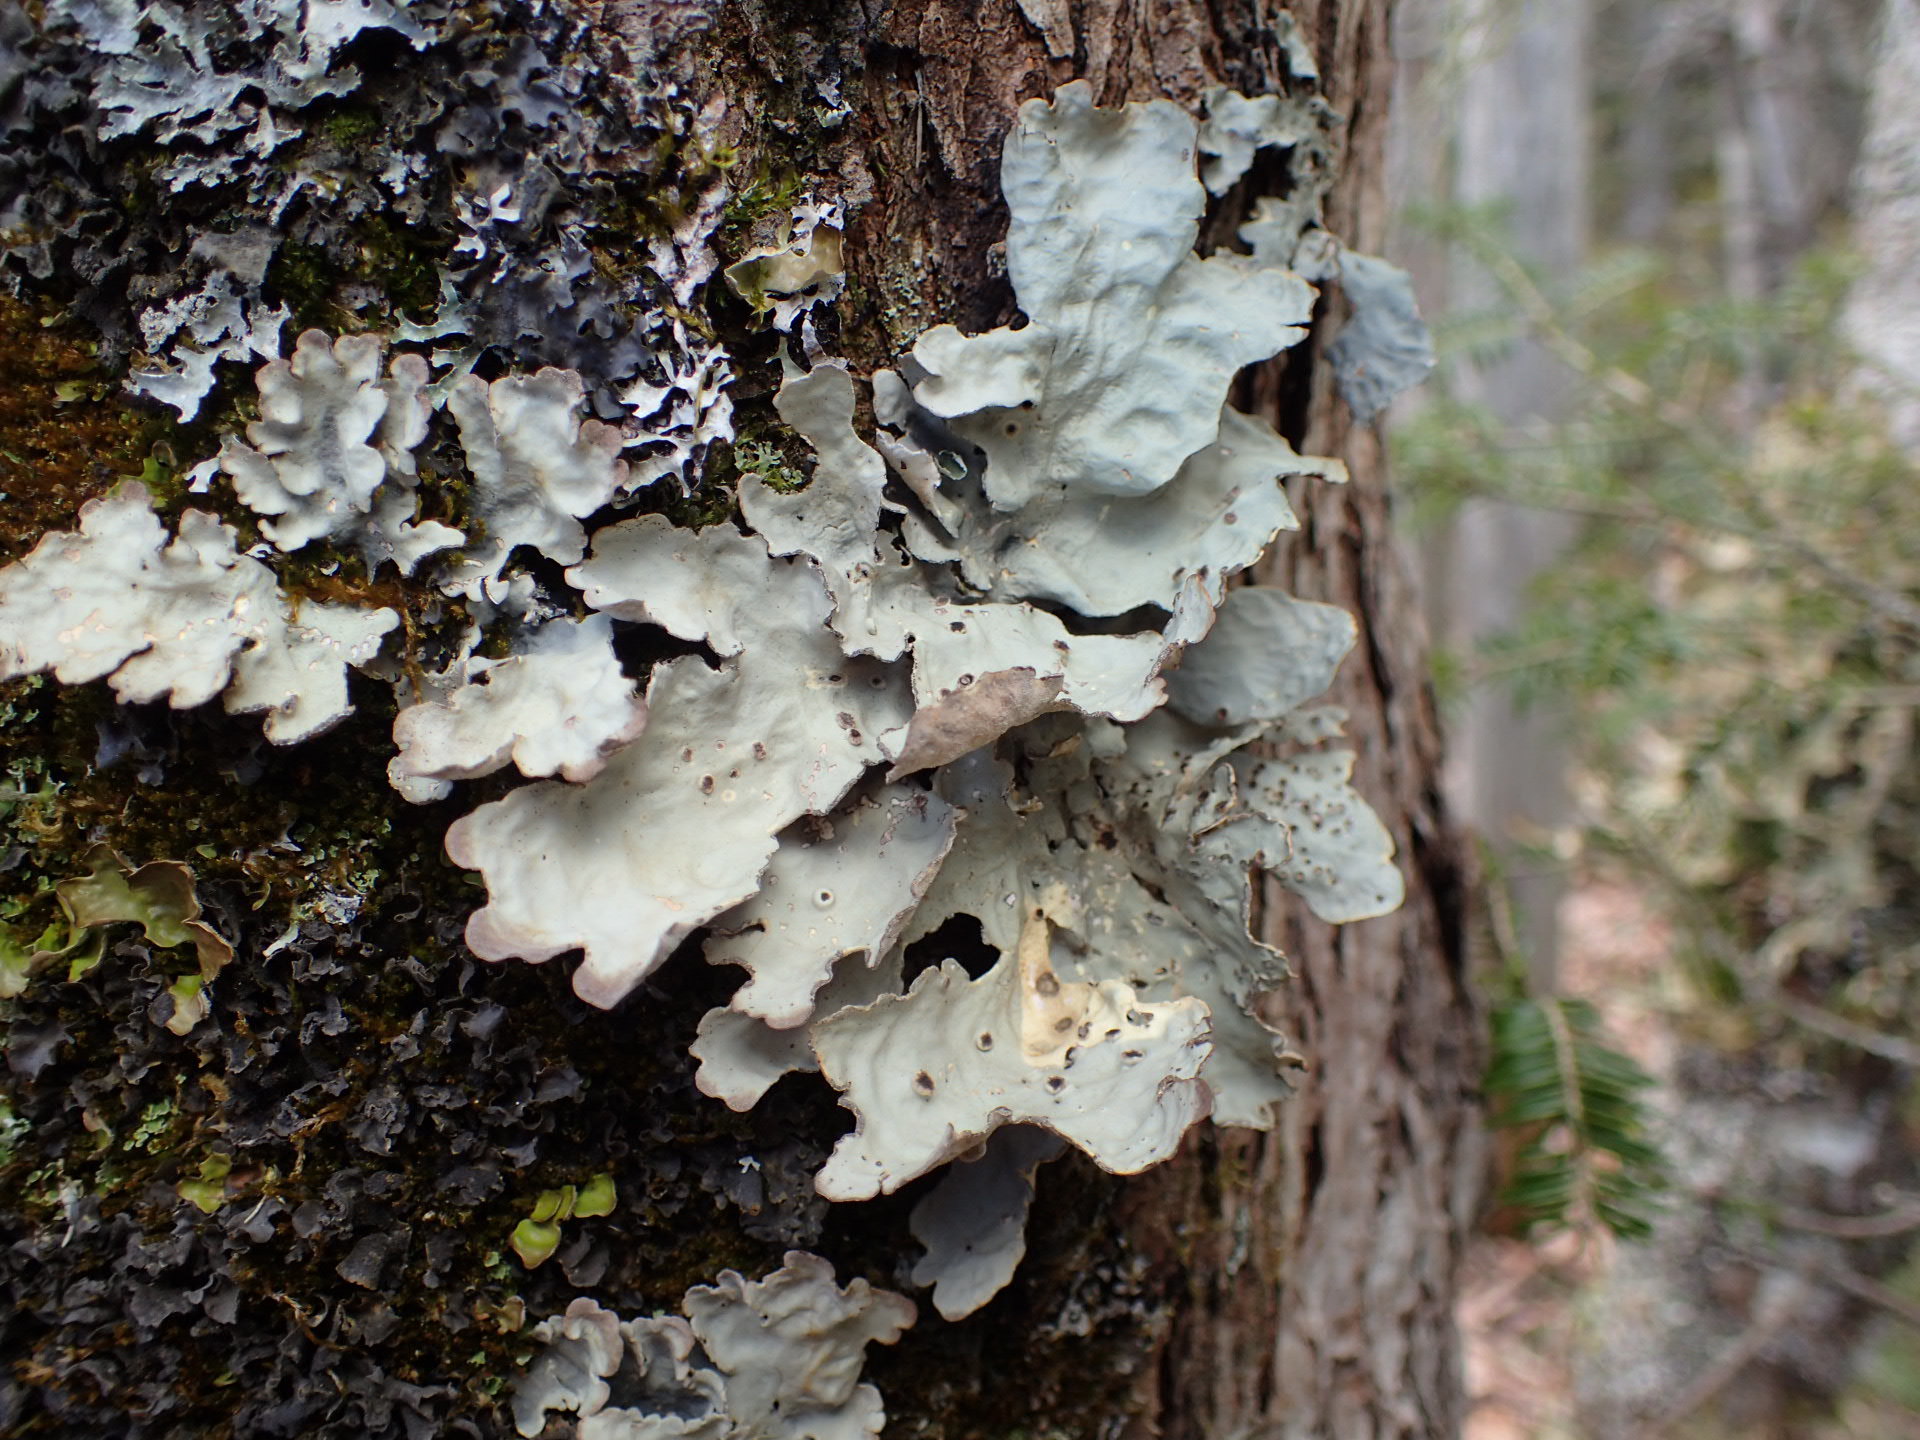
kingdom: Fungi
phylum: Ascomycota
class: Lecanoromycetes
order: Peltigerales
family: Lobariaceae
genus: Lobarina
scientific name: Lobarina scrobiculata
